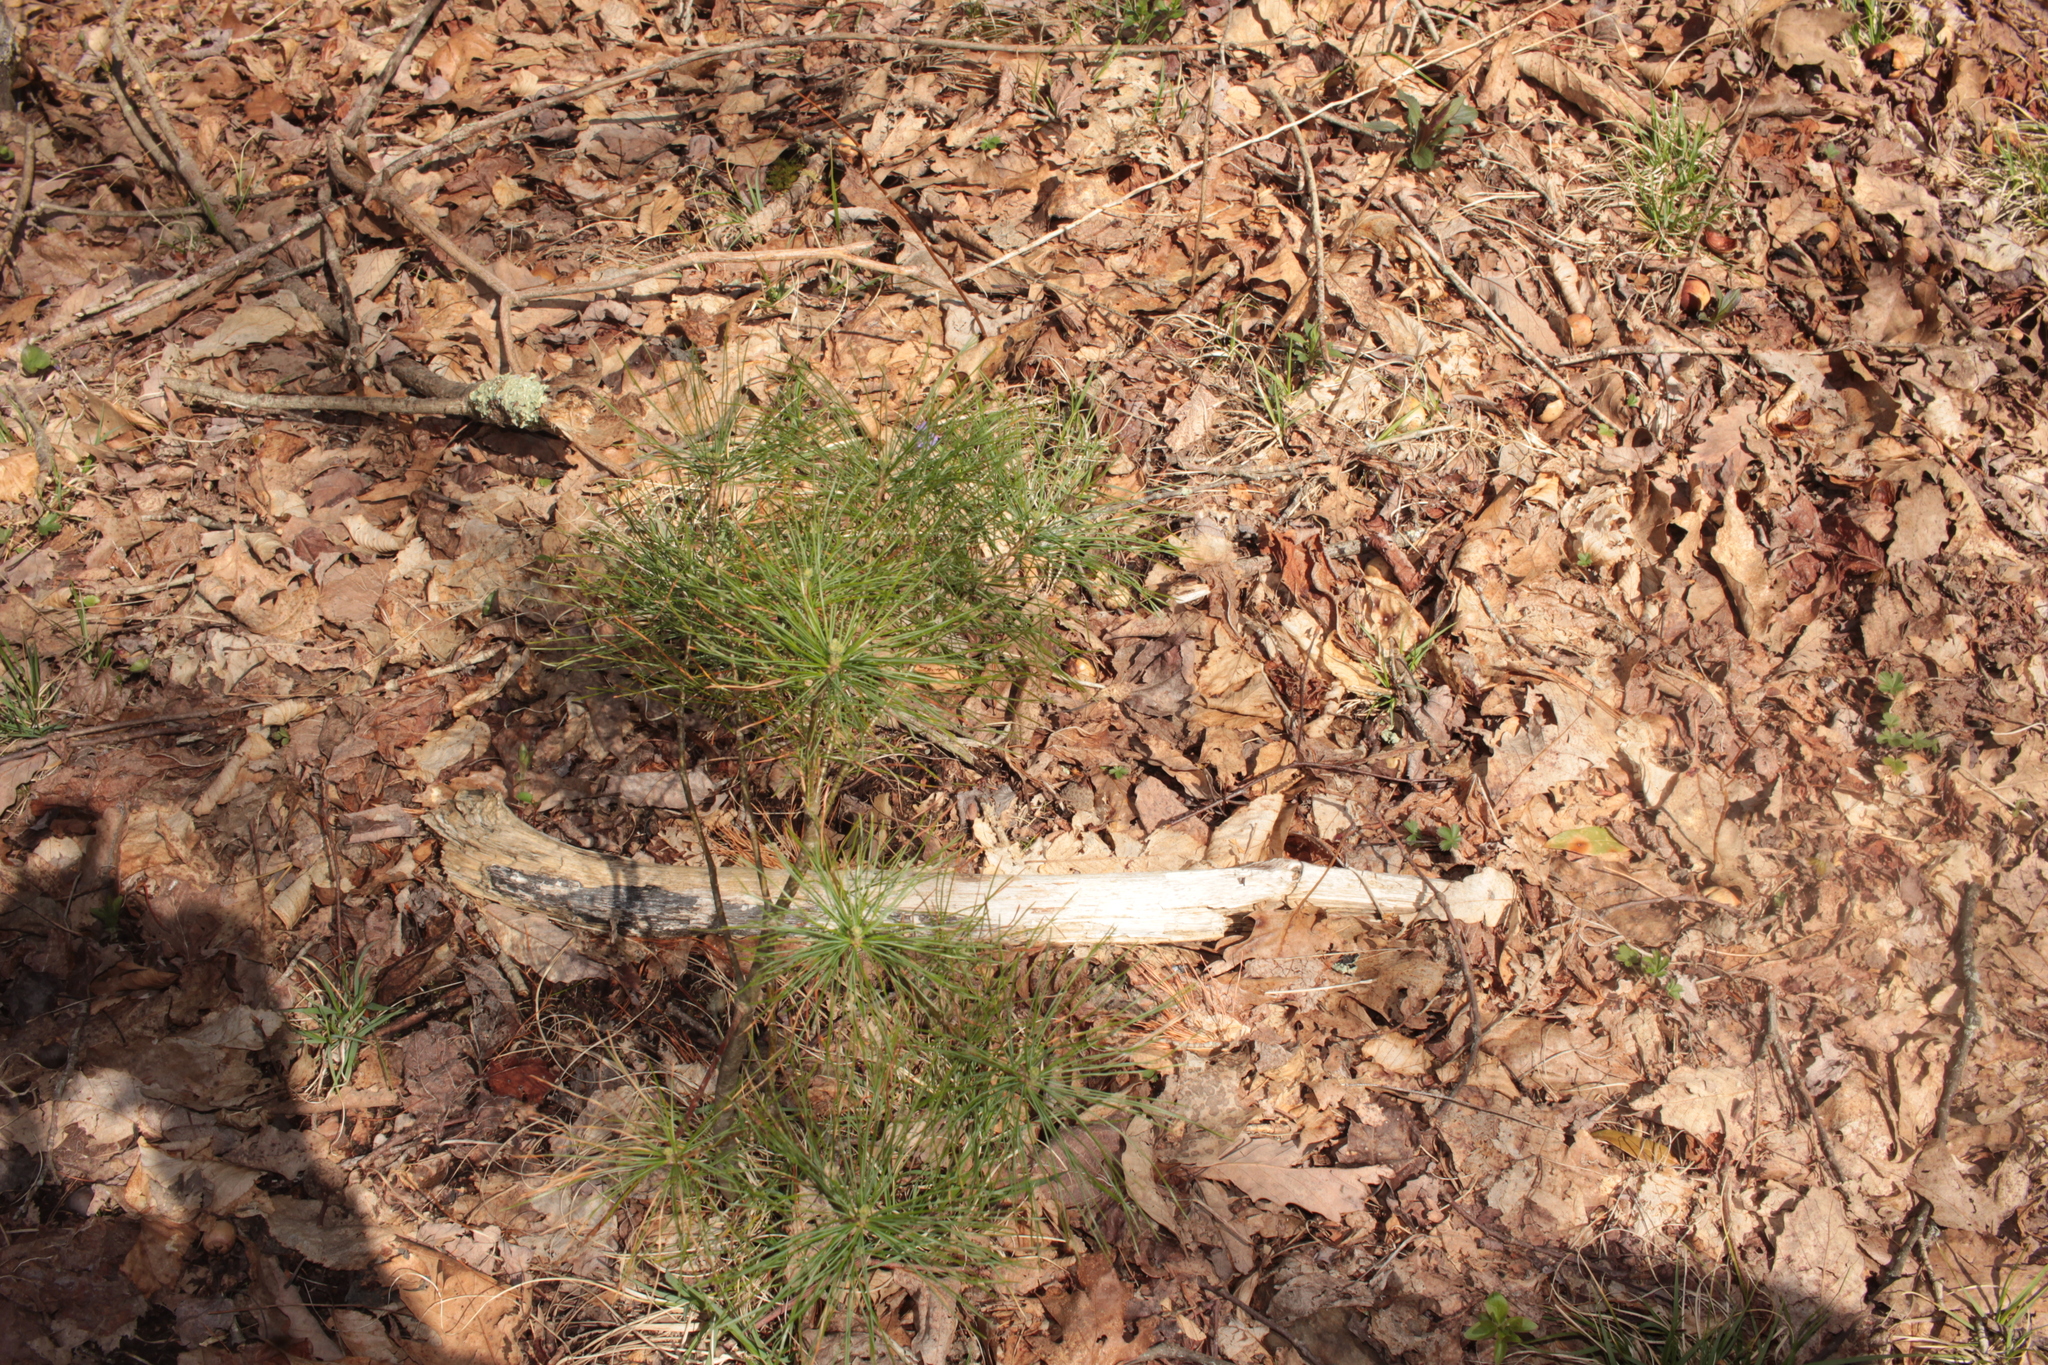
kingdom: Plantae
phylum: Tracheophyta
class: Pinopsida
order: Pinales
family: Pinaceae
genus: Pinus
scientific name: Pinus strobus
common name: Weymouth pine
